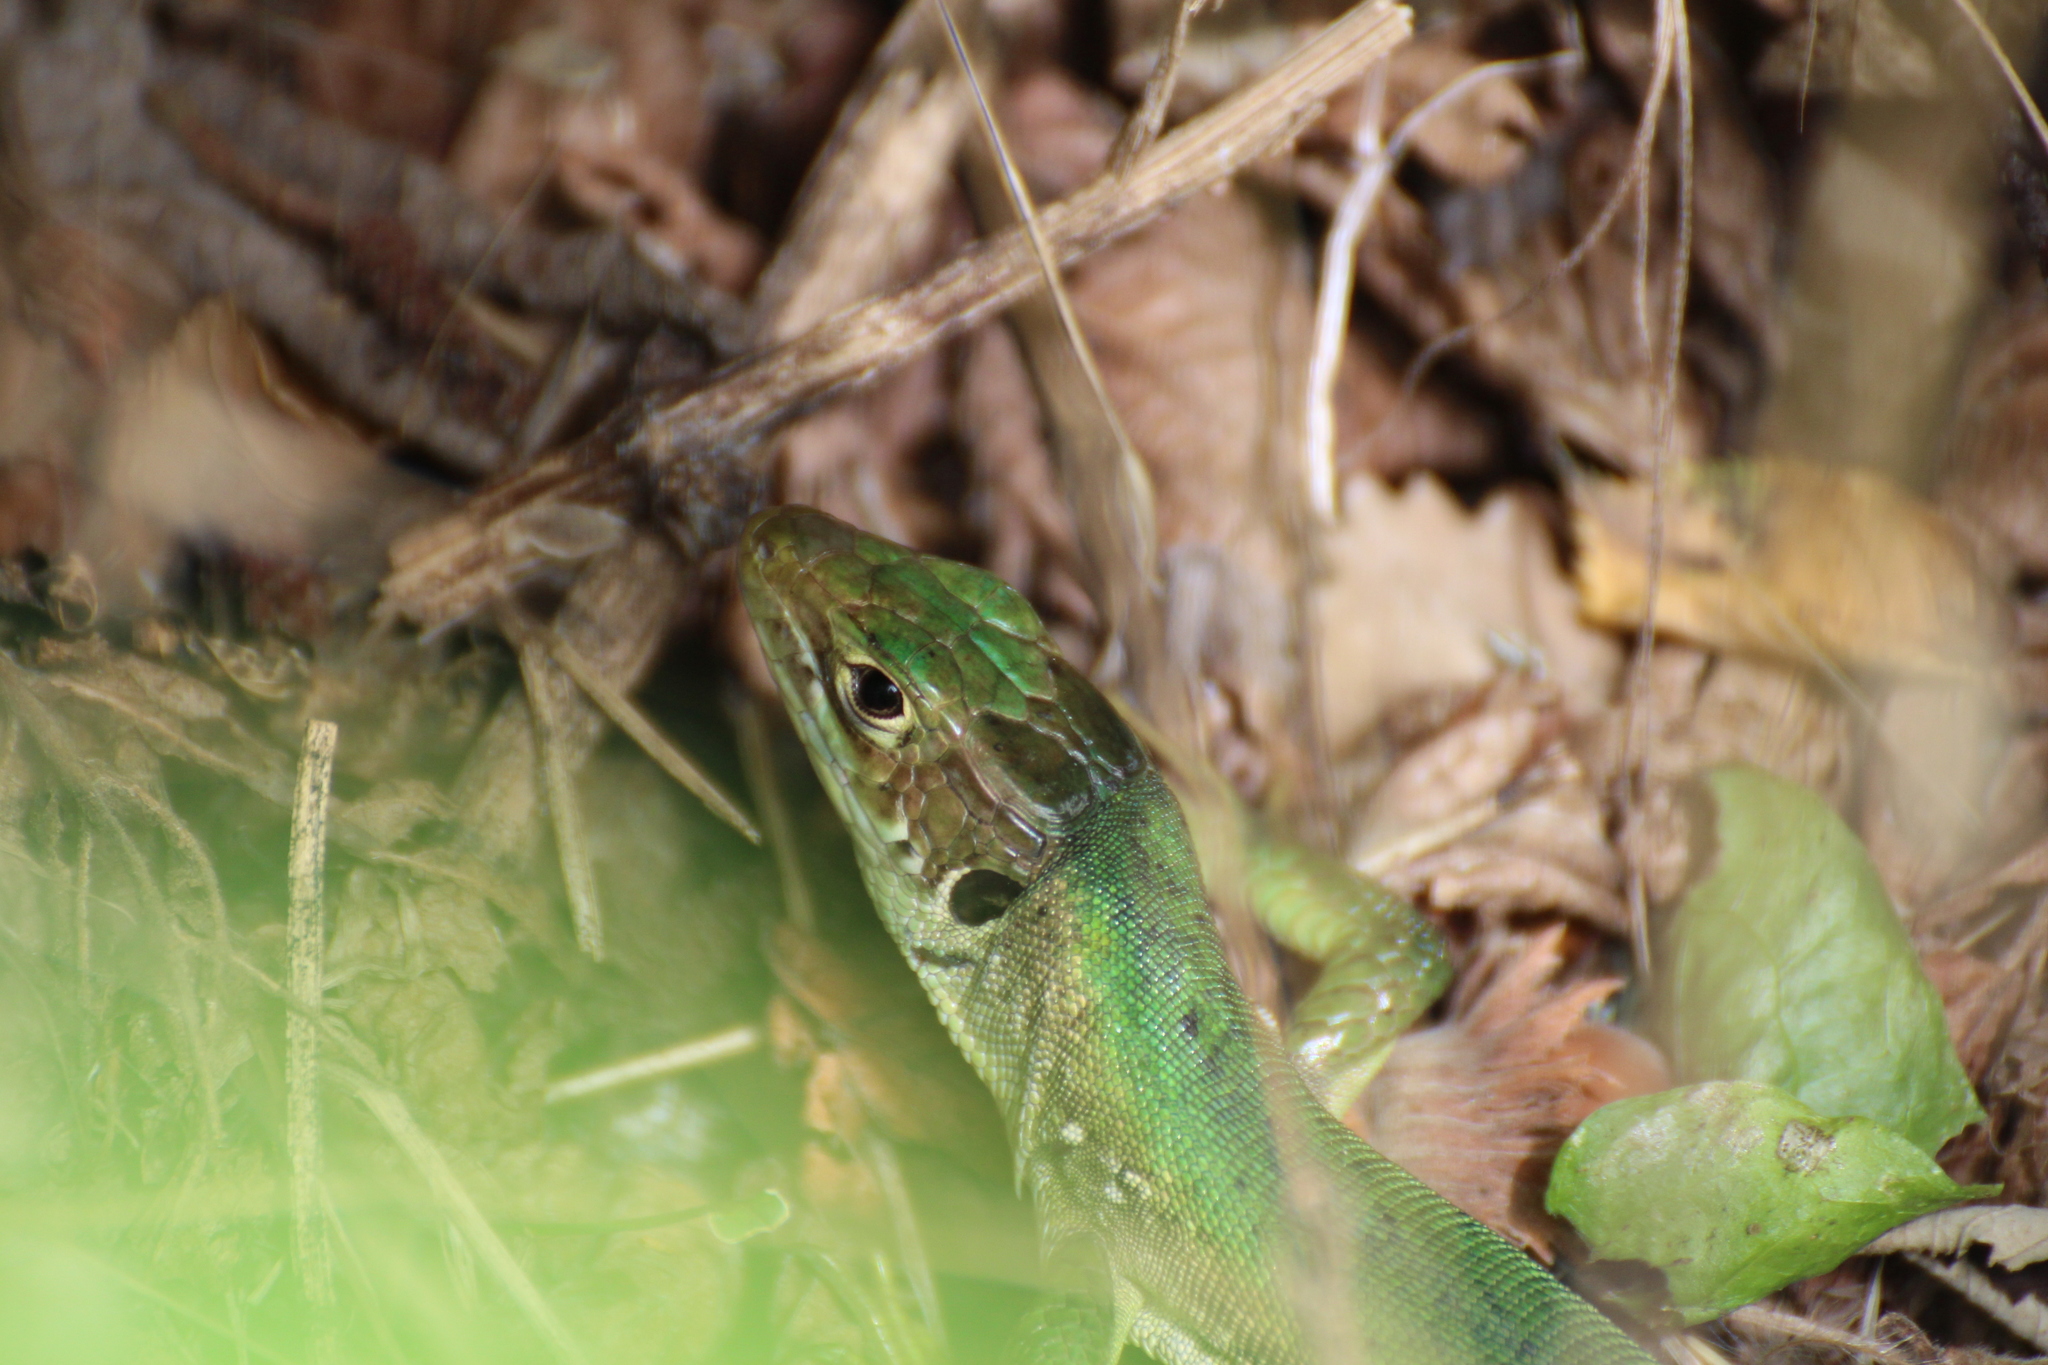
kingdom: Animalia
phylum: Chordata
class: Squamata
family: Lacertidae
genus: Lacerta
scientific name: Lacerta bilineata
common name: Western green lizard
